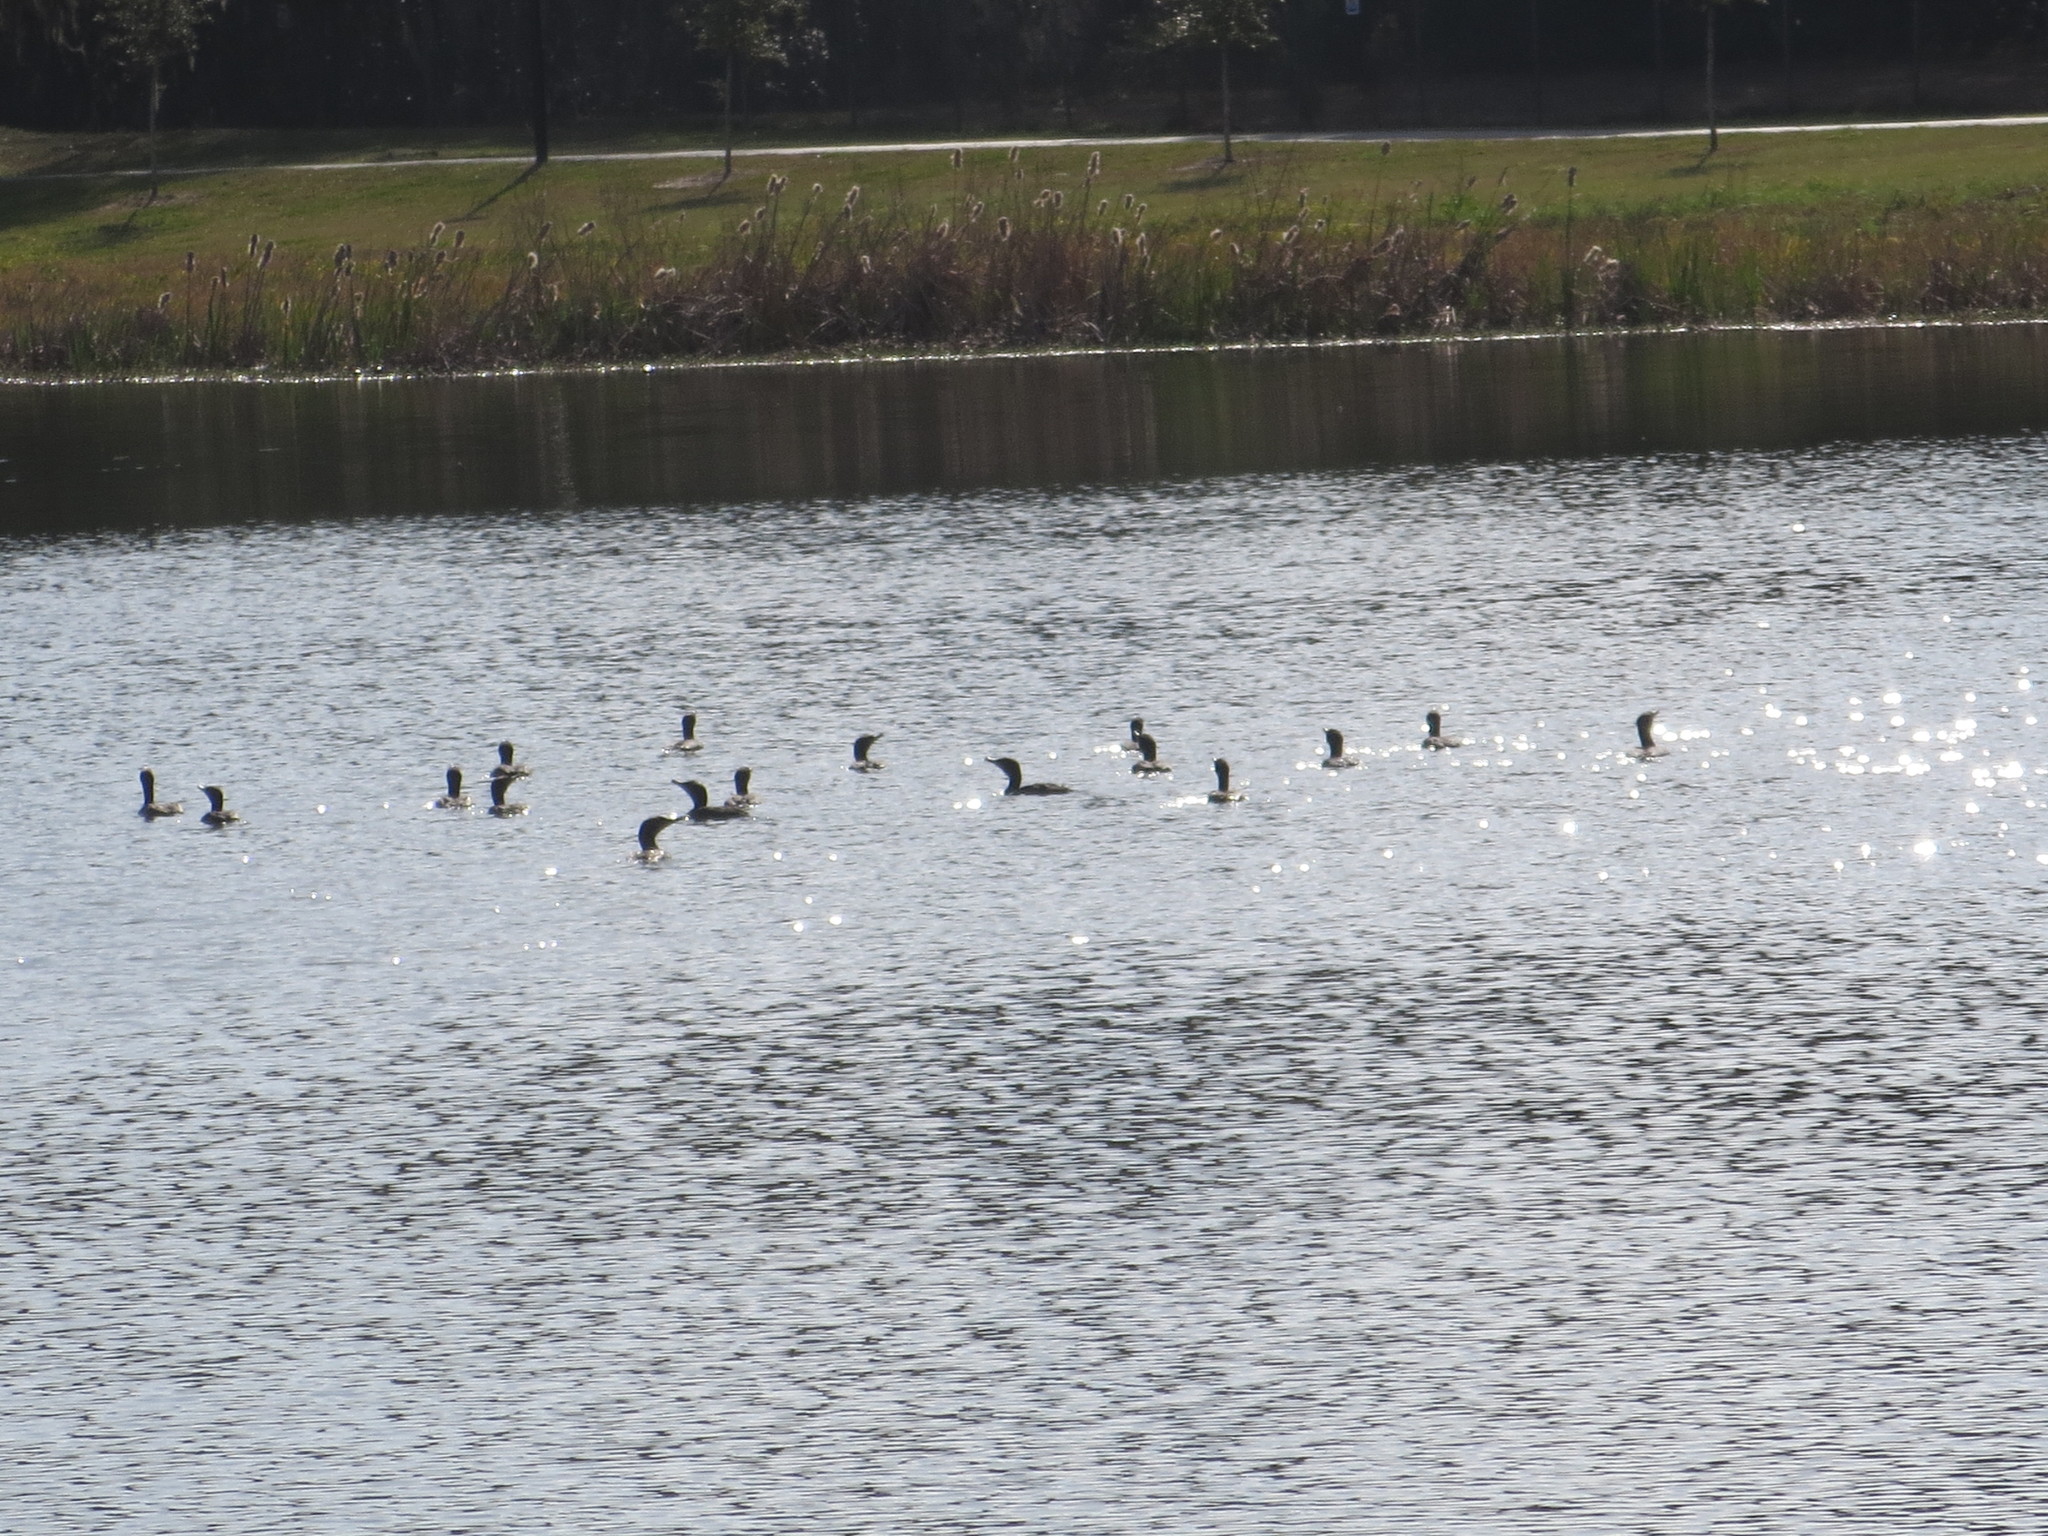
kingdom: Animalia
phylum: Chordata
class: Aves
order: Suliformes
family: Phalacrocoracidae
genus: Phalacrocorax
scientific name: Phalacrocorax auritus
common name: Double-crested cormorant
